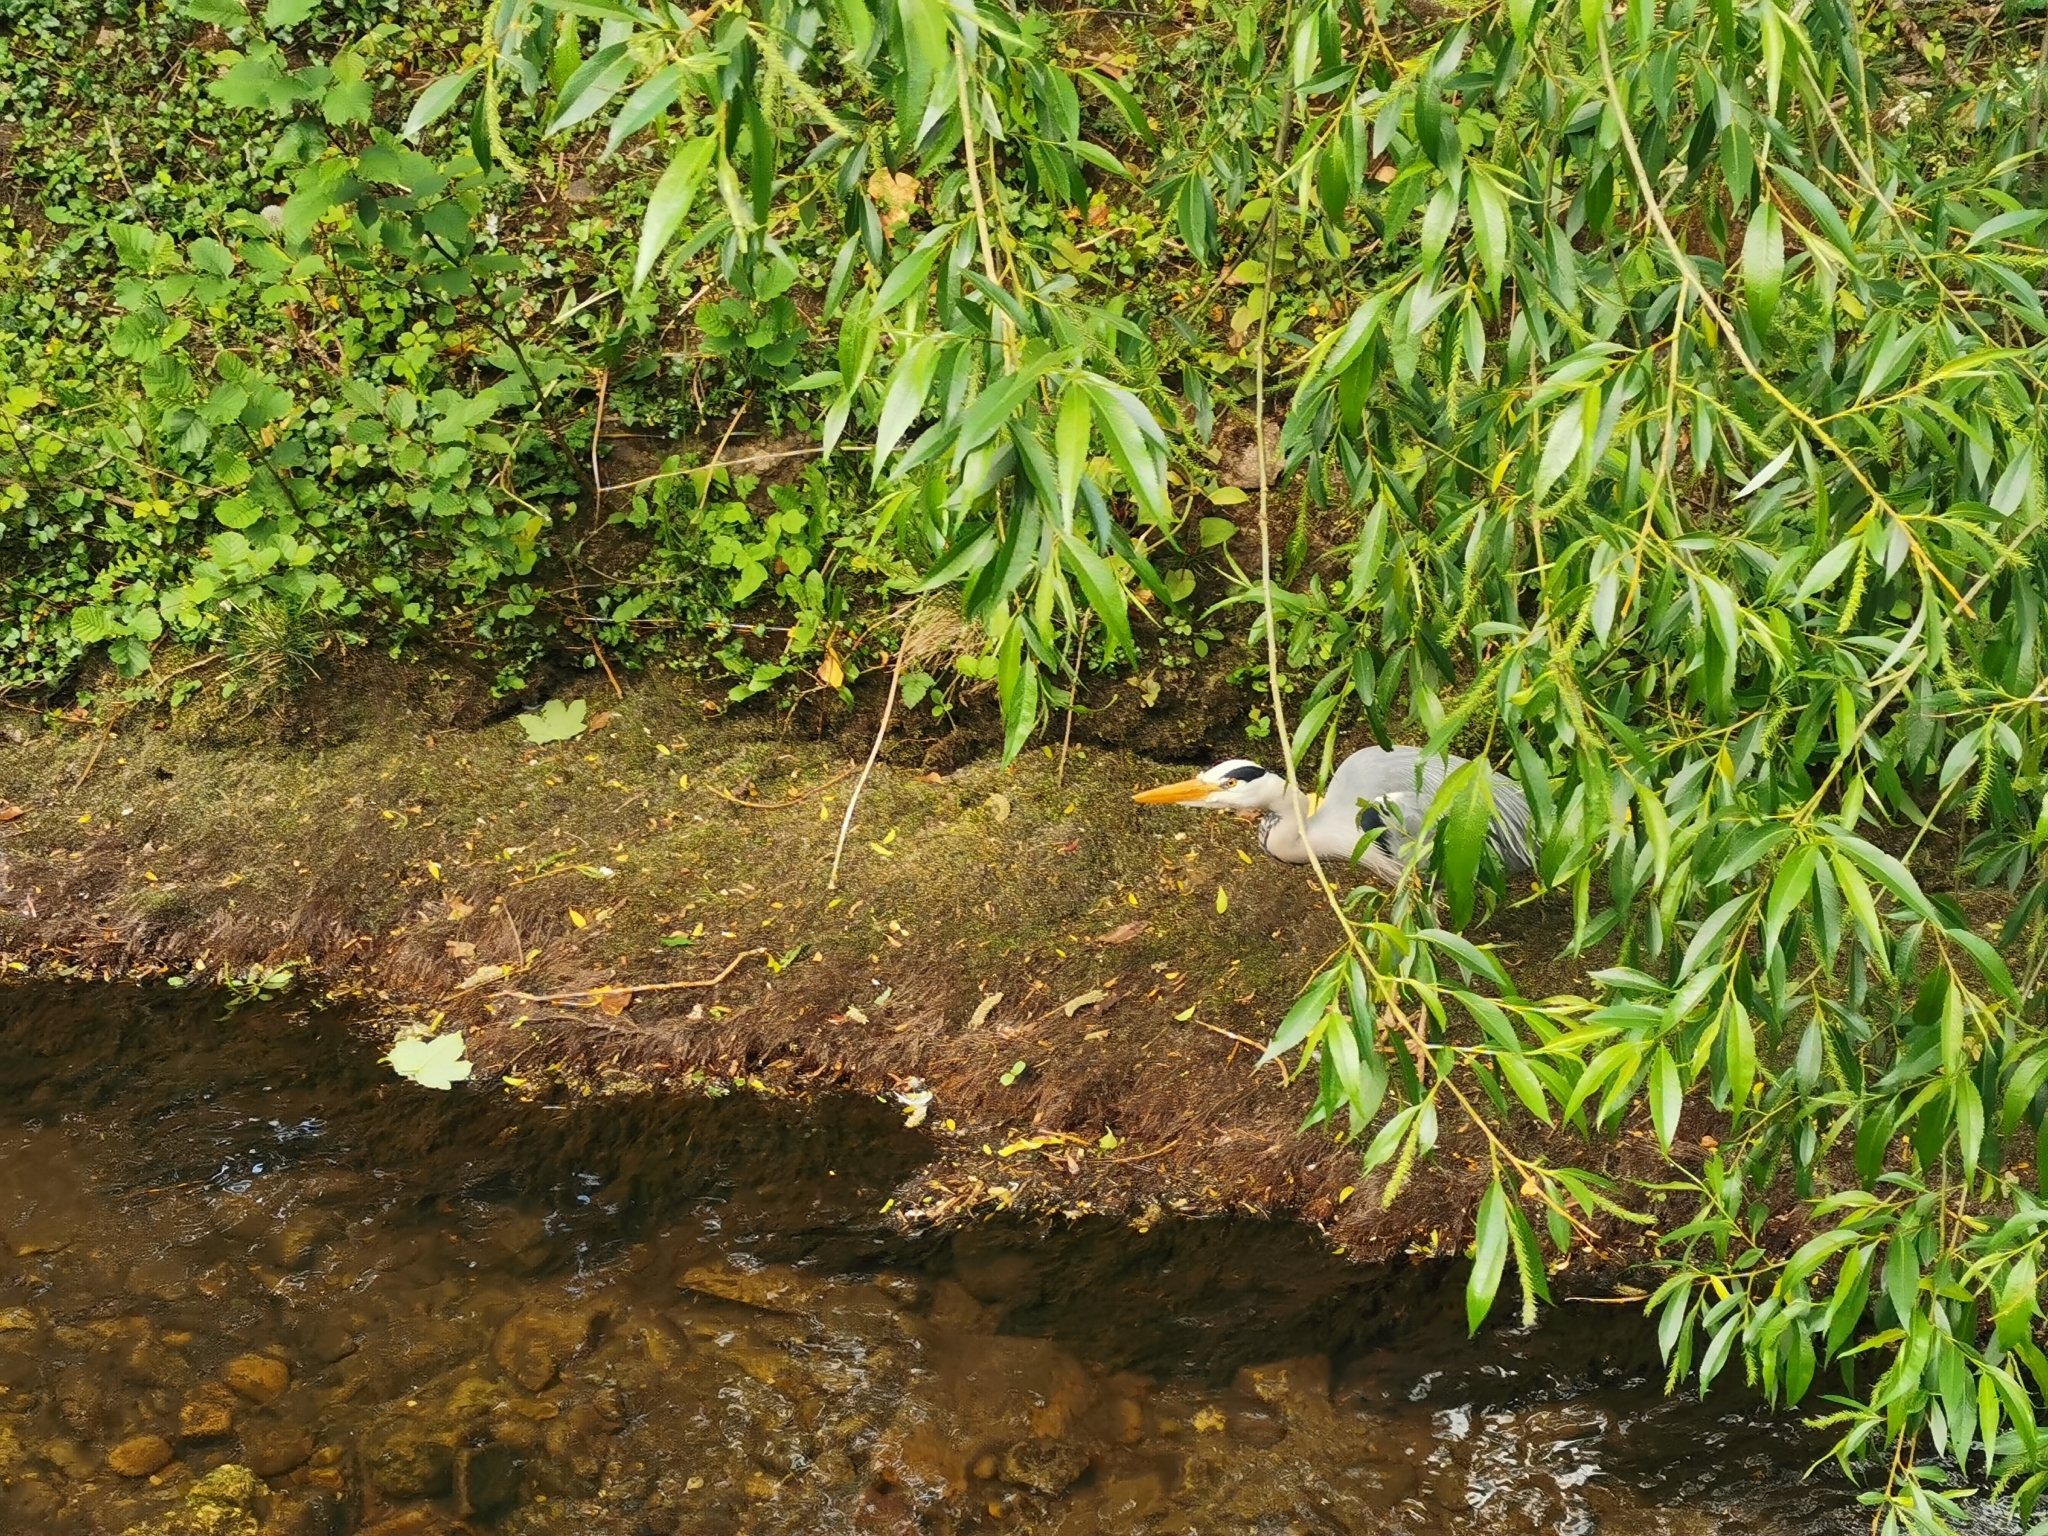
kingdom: Animalia
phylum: Chordata
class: Aves
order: Pelecaniformes
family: Ardeidae
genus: Ardea
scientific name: Ardea cinerea
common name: Grey heron
